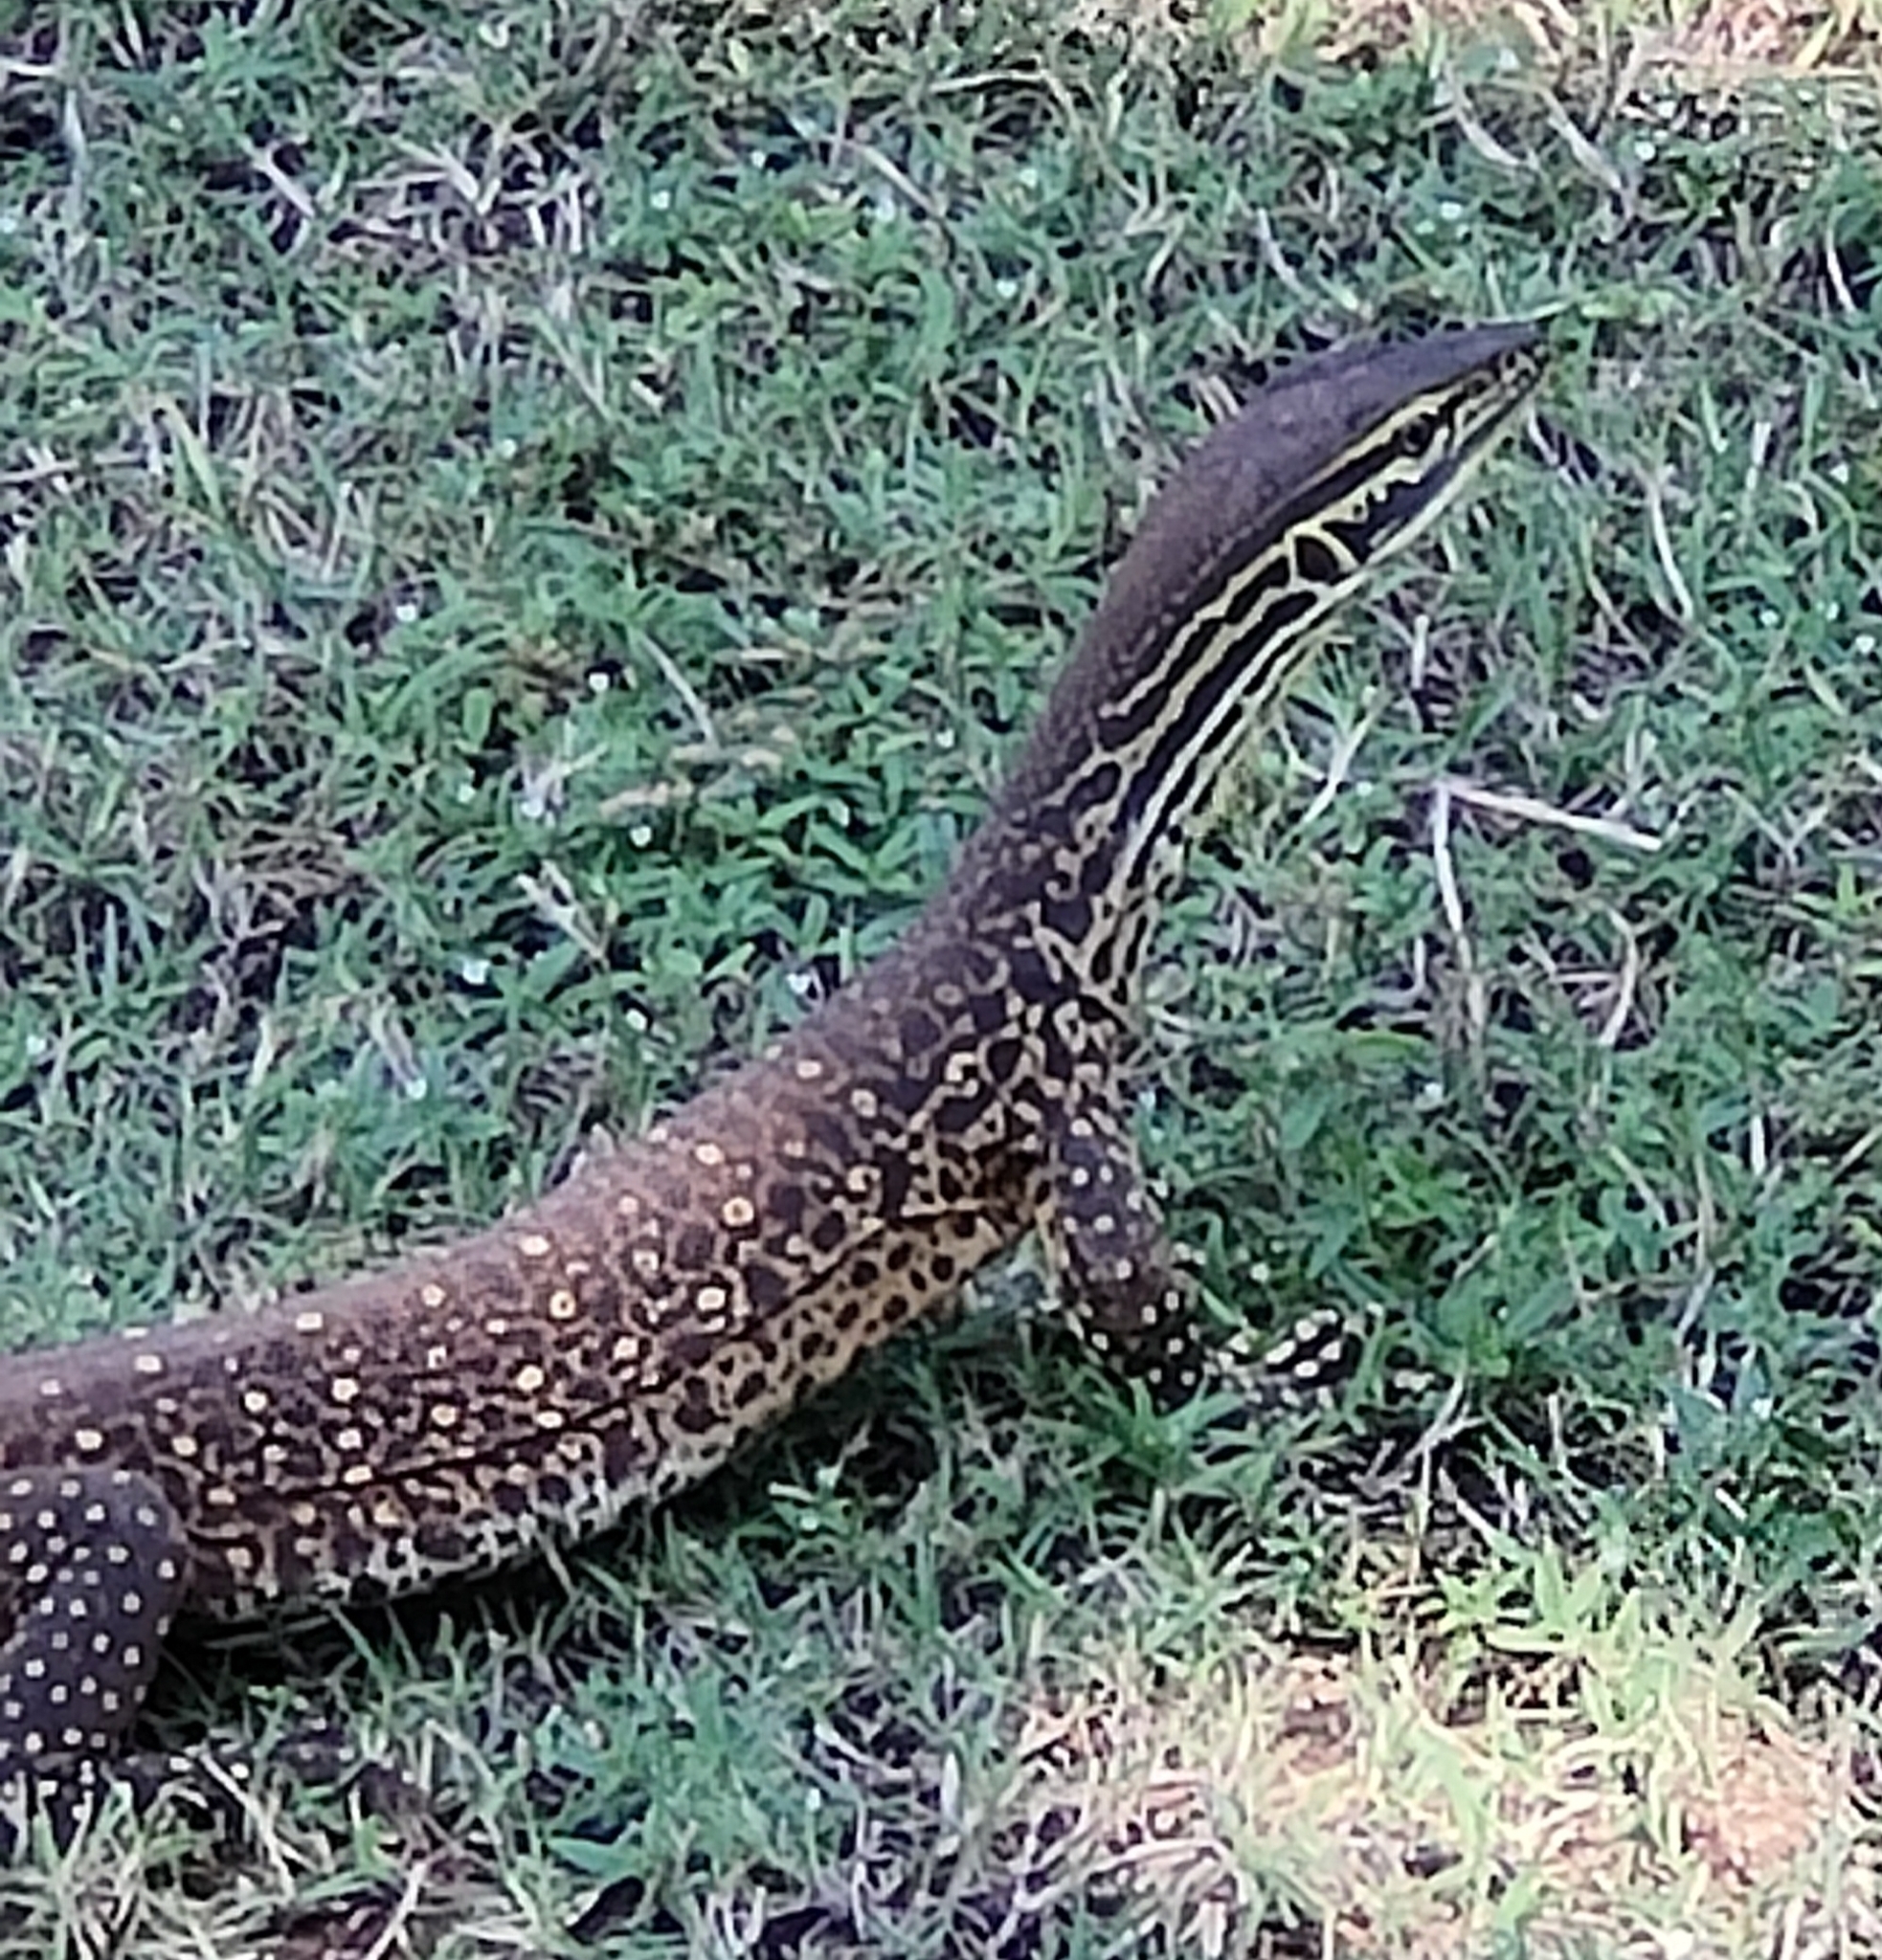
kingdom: Animalia
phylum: Chordata
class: Squamata
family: Varanidae
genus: Varanus
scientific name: Varanus panoptes
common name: Yellow-spotted monitor
